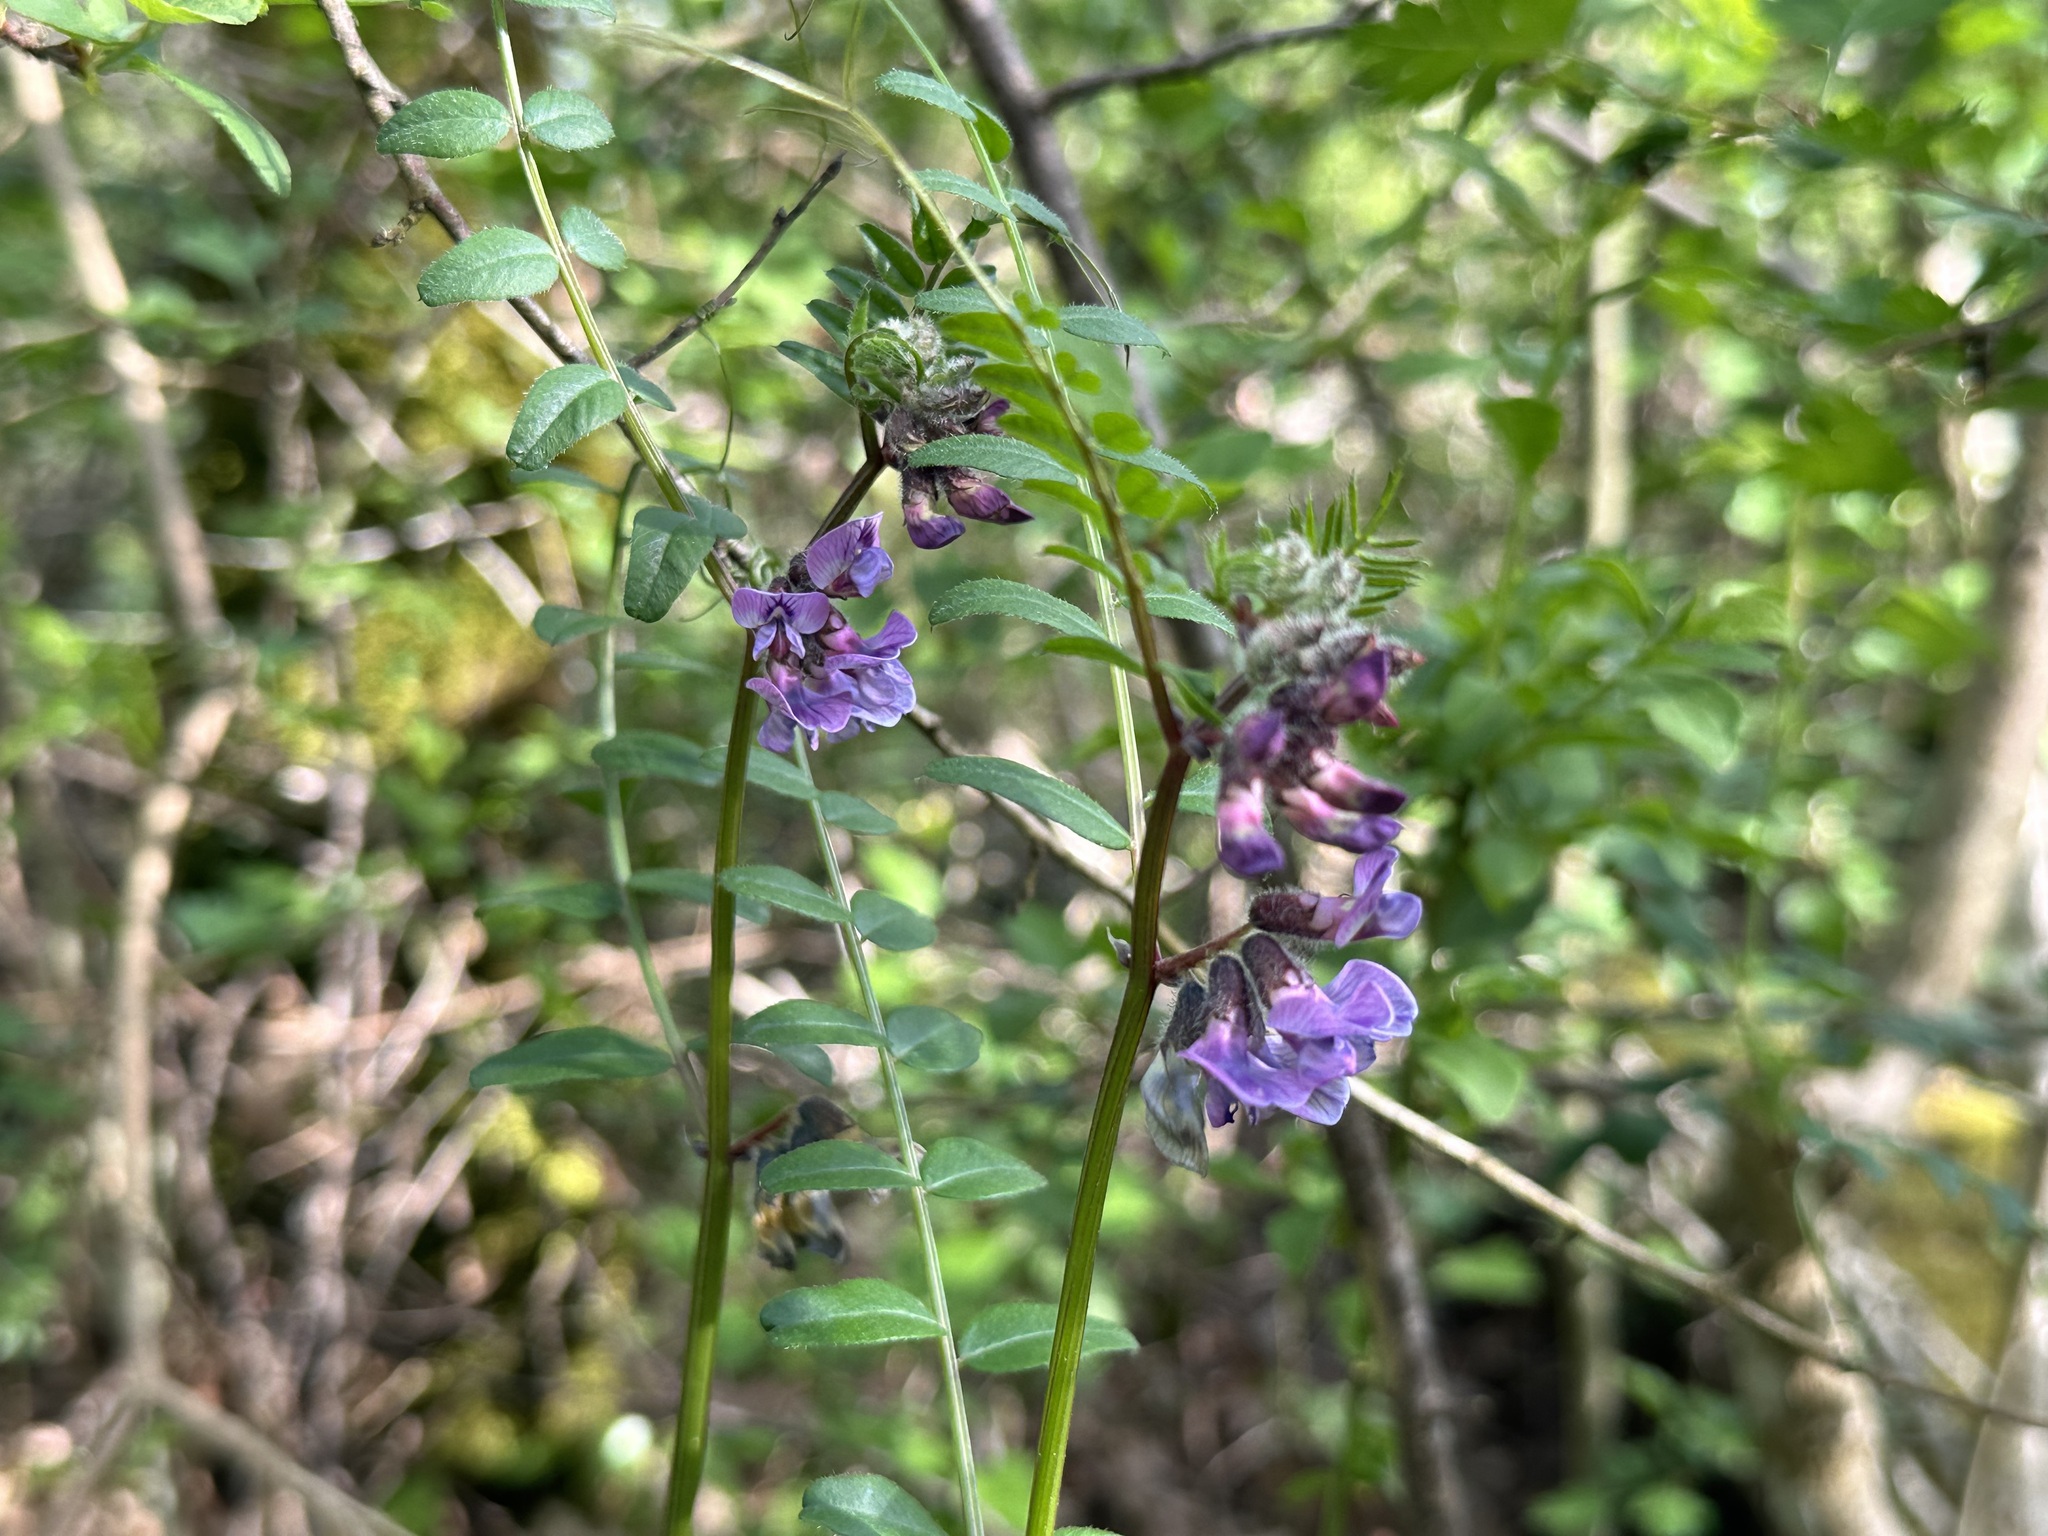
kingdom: Plantae
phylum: Tracheophyta
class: Magnoliopsida
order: Fabales
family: Fabaceae
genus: Vicia
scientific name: Vicia sepium
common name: Bush vetch
